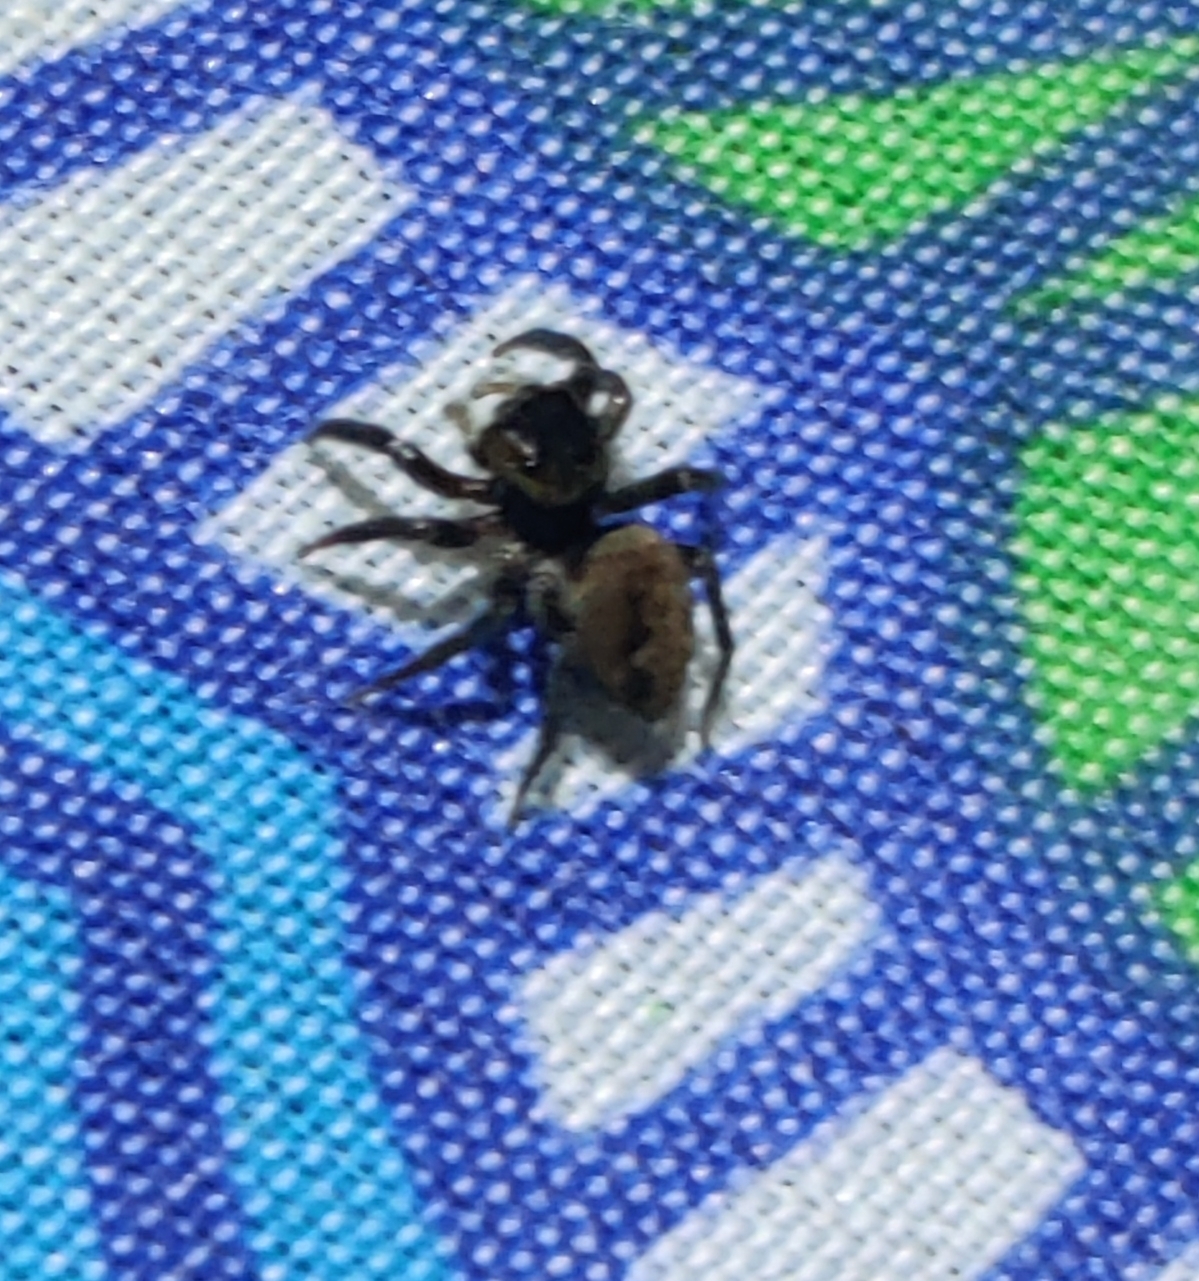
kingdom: Animalia
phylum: Arthropoda
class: Arachnida
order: Araneae
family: Salticidae
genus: Hasarius
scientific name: Hasarius adansoni
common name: Jumping spider
